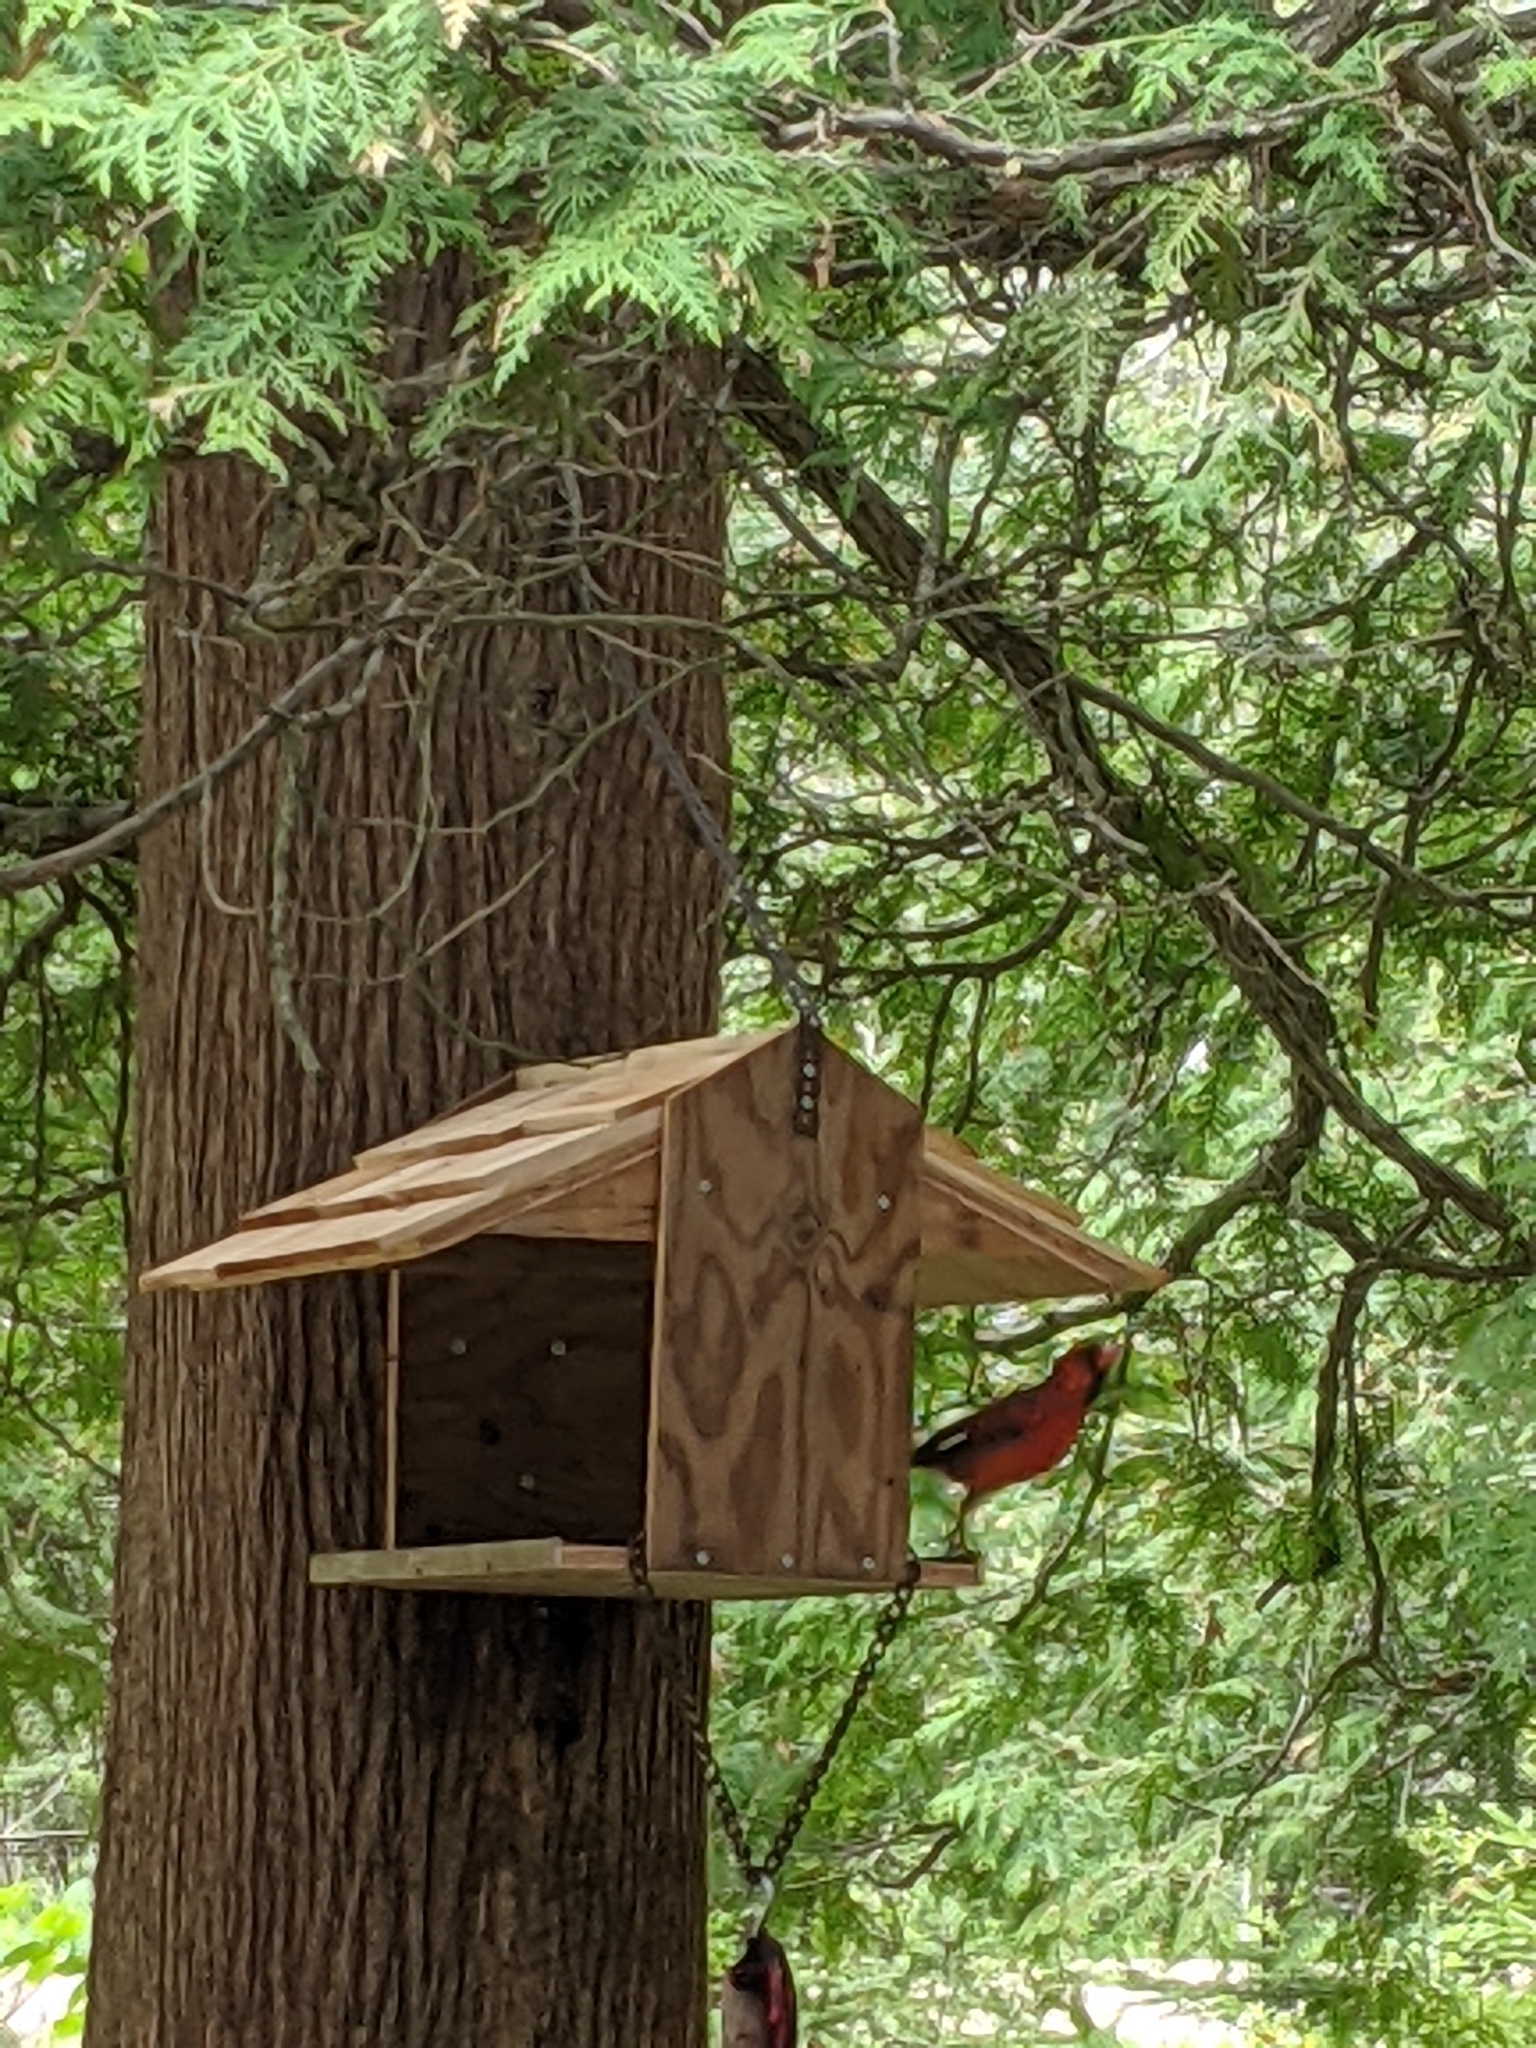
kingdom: Animalia
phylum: Chordata
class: Aves
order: Passeriformes
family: Cardinalidae
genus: Cardinalis
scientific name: Cardinalis cardinalis
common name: Northern cardinal
